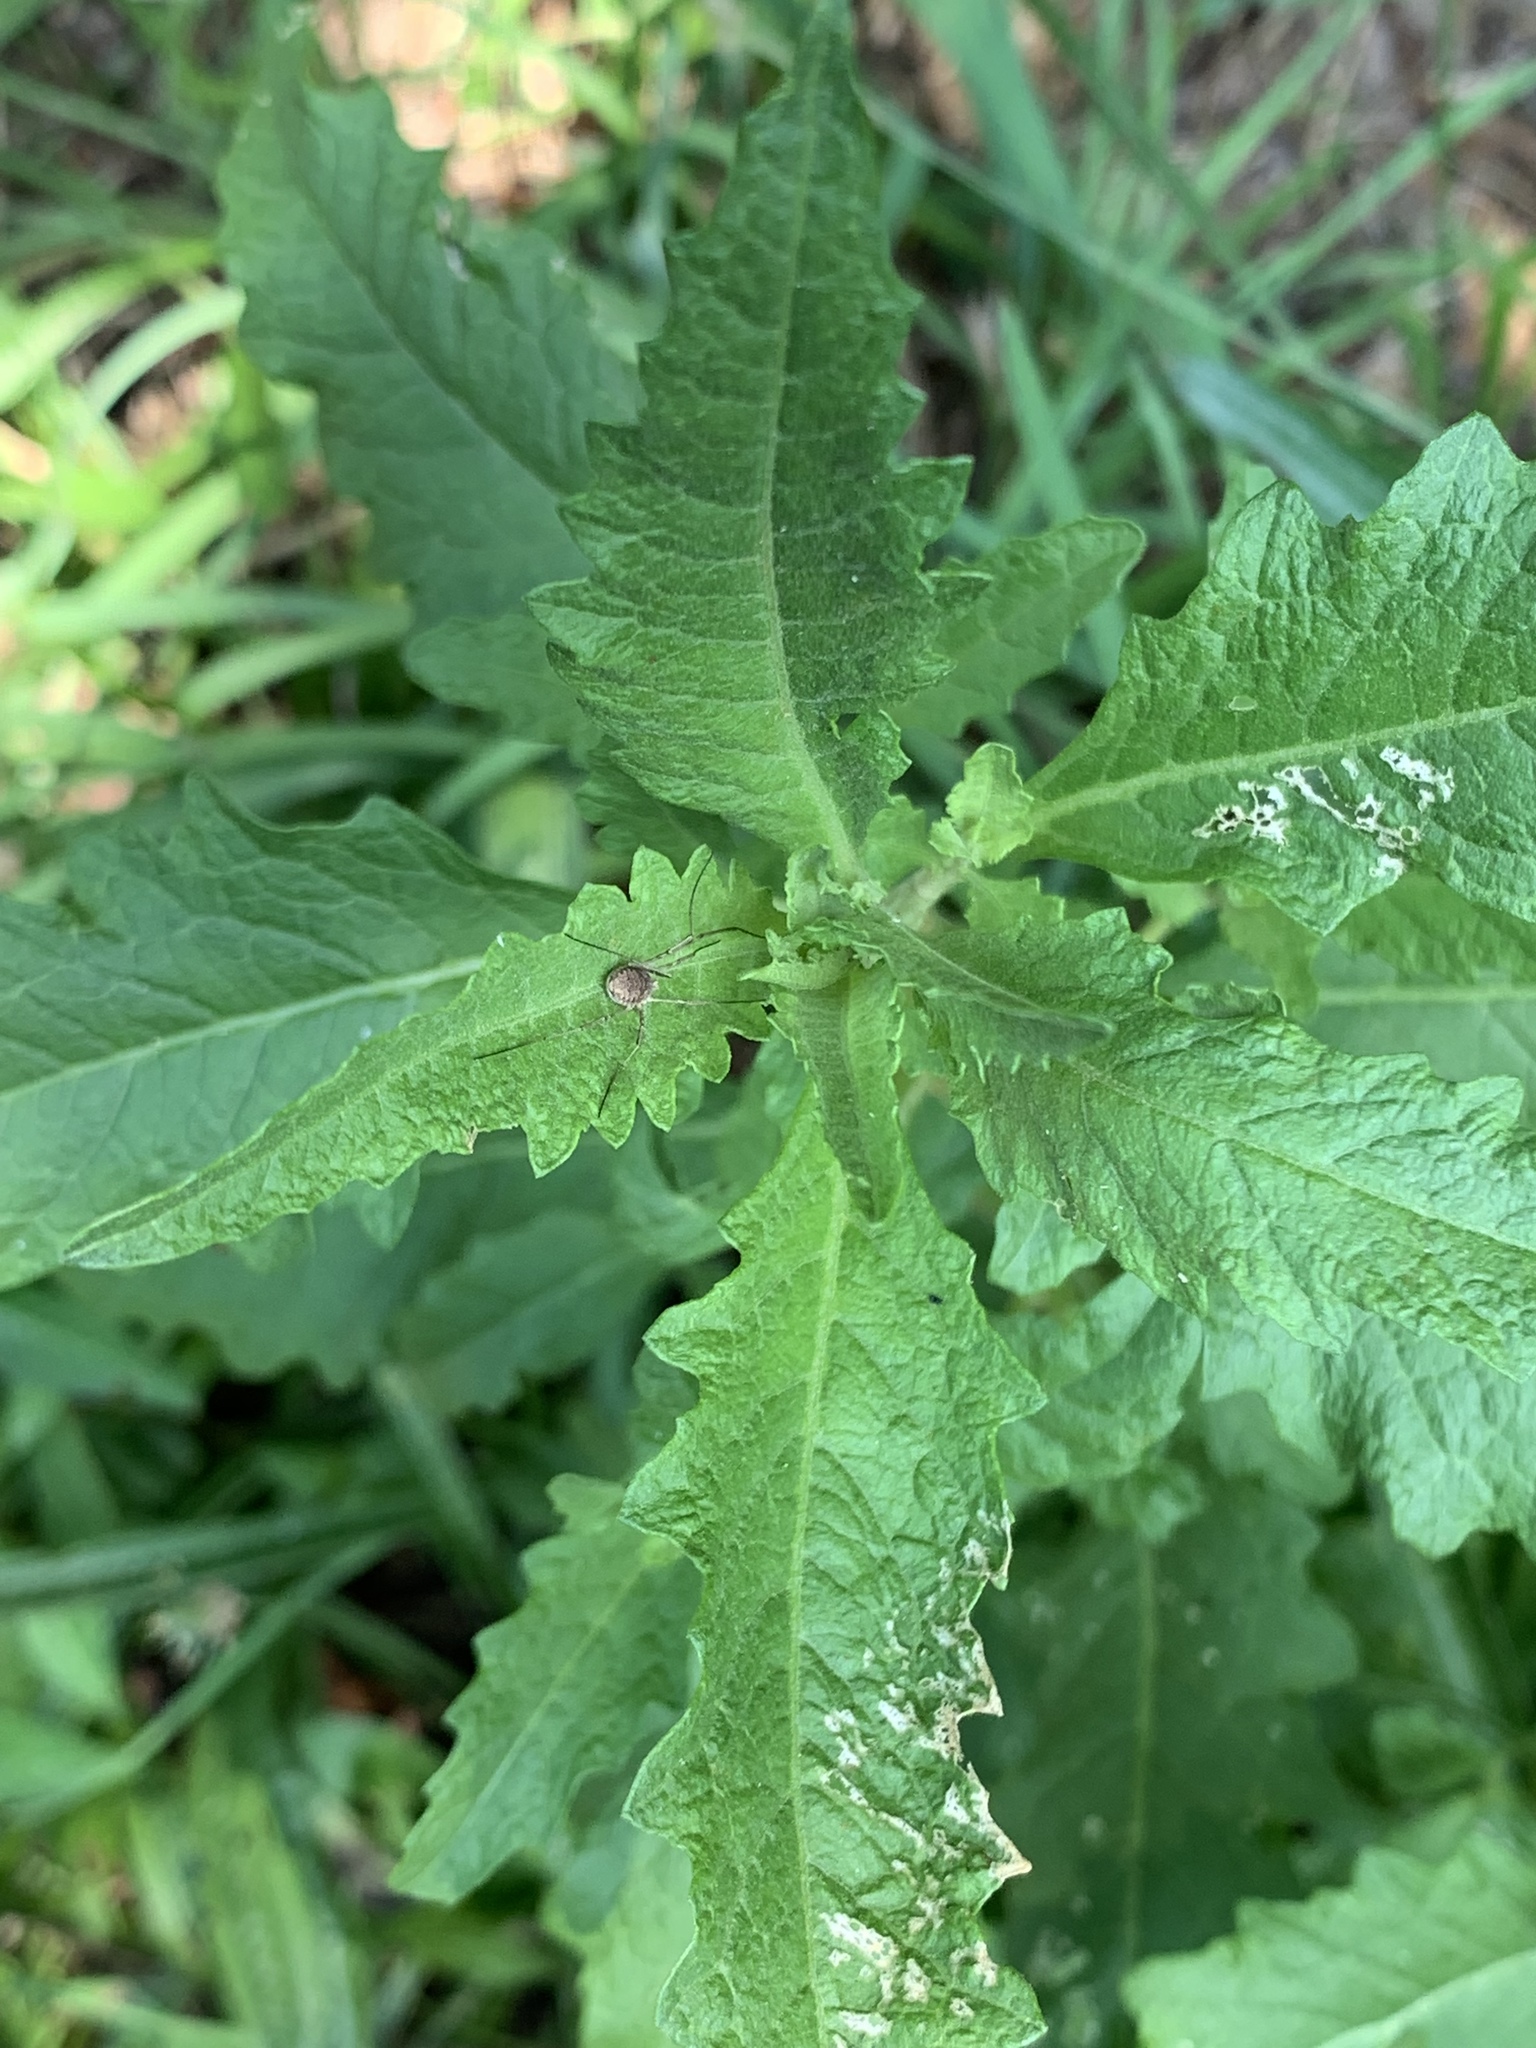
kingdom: Plantae
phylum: Tracheophyta
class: Magnoliopsida
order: Caryophyllales
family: Amaranthaceae
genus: Dysphania
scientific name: Dysphania ambrosioides
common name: Wormseed
